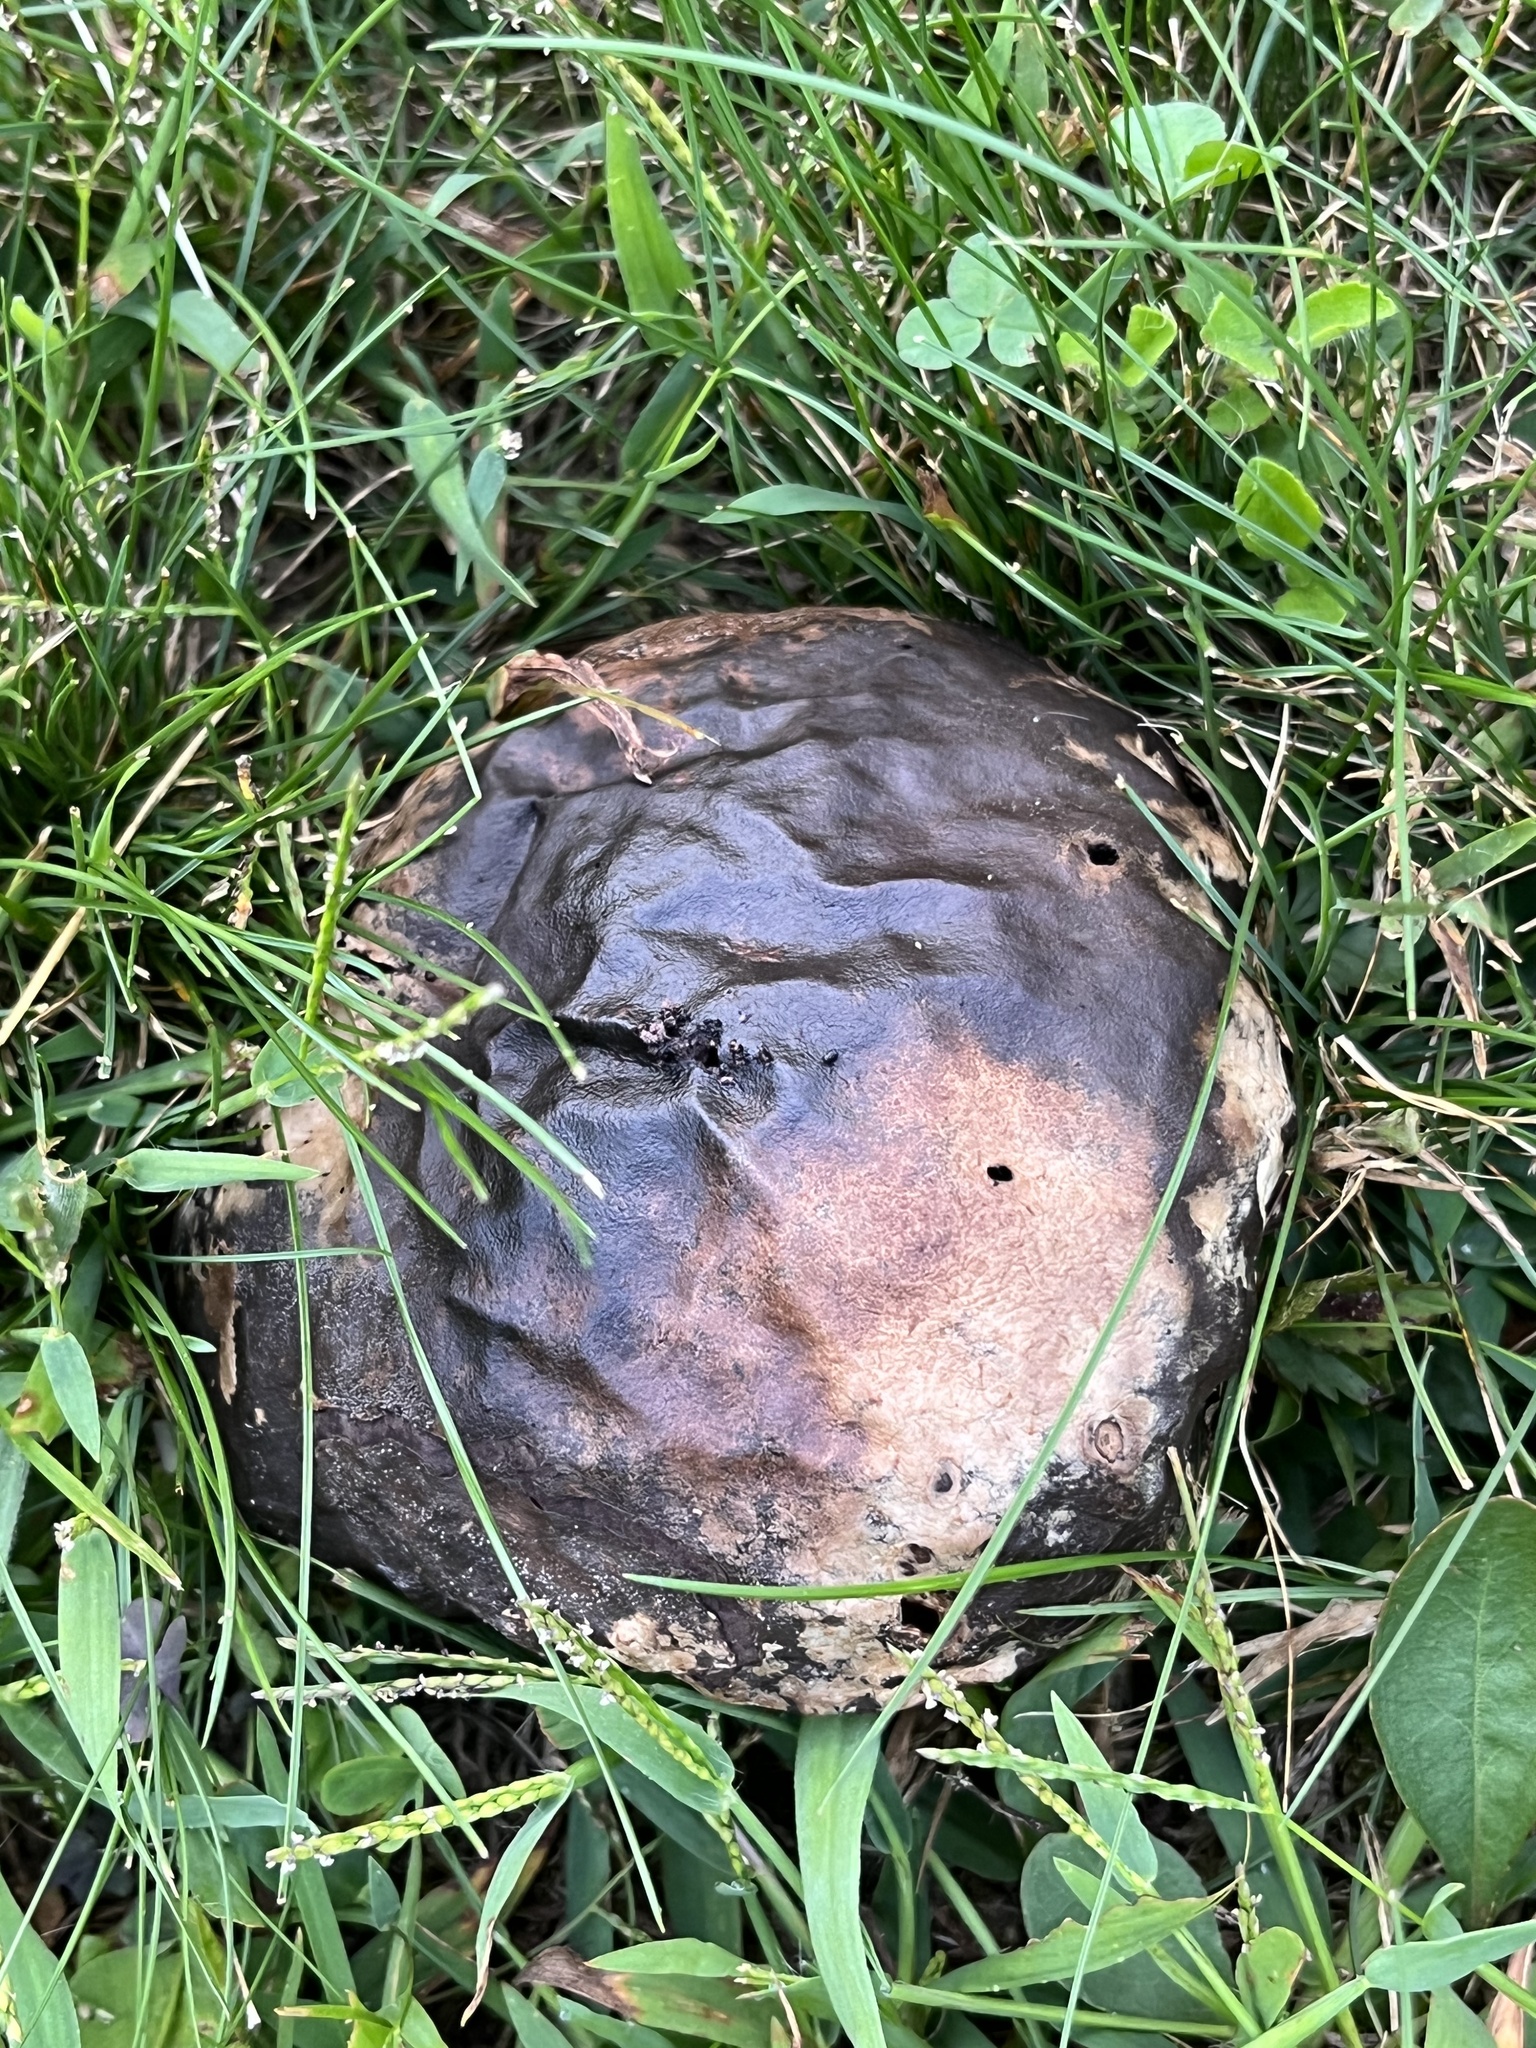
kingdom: Fungi
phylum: Basidiomycota
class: Agaricomycetes
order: Agaricales
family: Lycoperdaceae
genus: Calvatia
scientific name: Calvatia cyathiformis
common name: Purple-spored puffball
